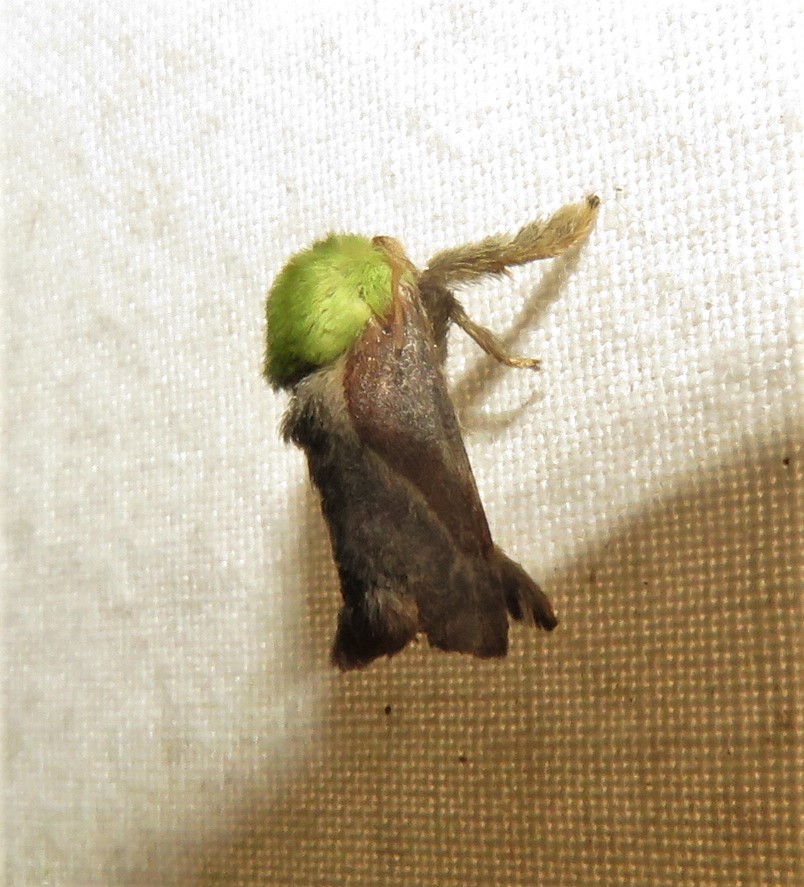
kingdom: Animalia
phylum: Arthropoda
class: Insecta
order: Lepidoptera
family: Limacodidae
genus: Parasa
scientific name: Parasa viridogrisea
